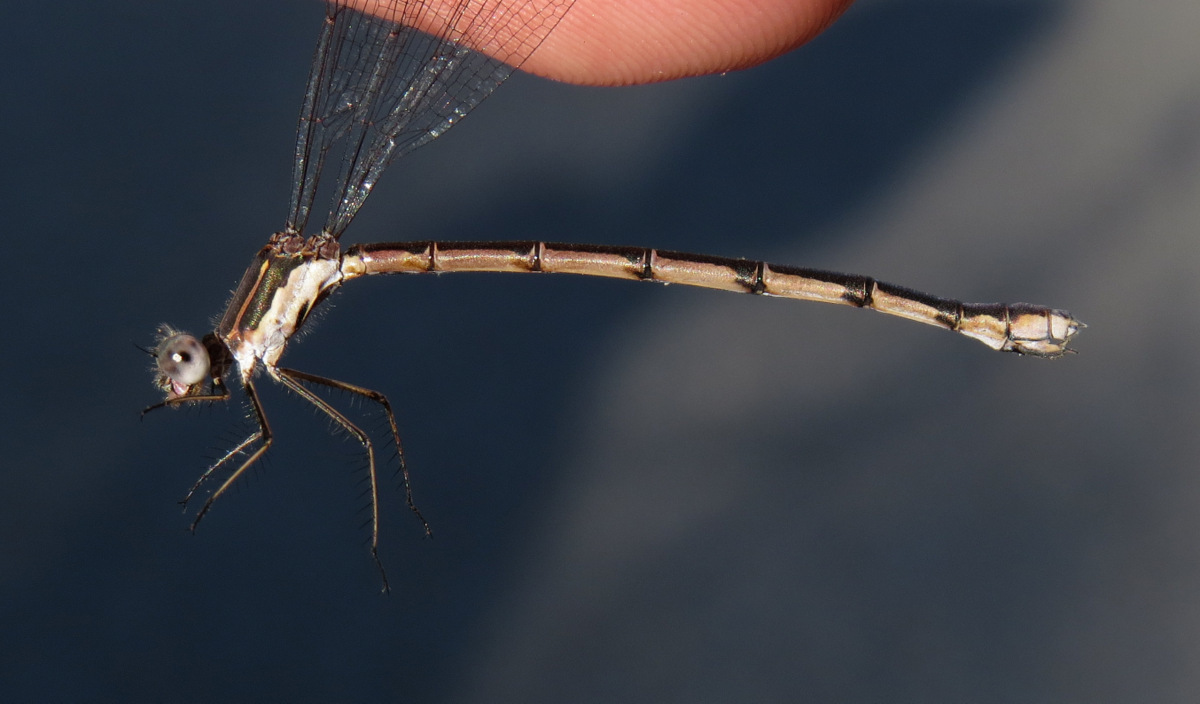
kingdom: Animalia
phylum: Arthropoda
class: Insecta
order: Odonata
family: Lestidae
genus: Lestes
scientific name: Lestes congener
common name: Spotted spreadwing
